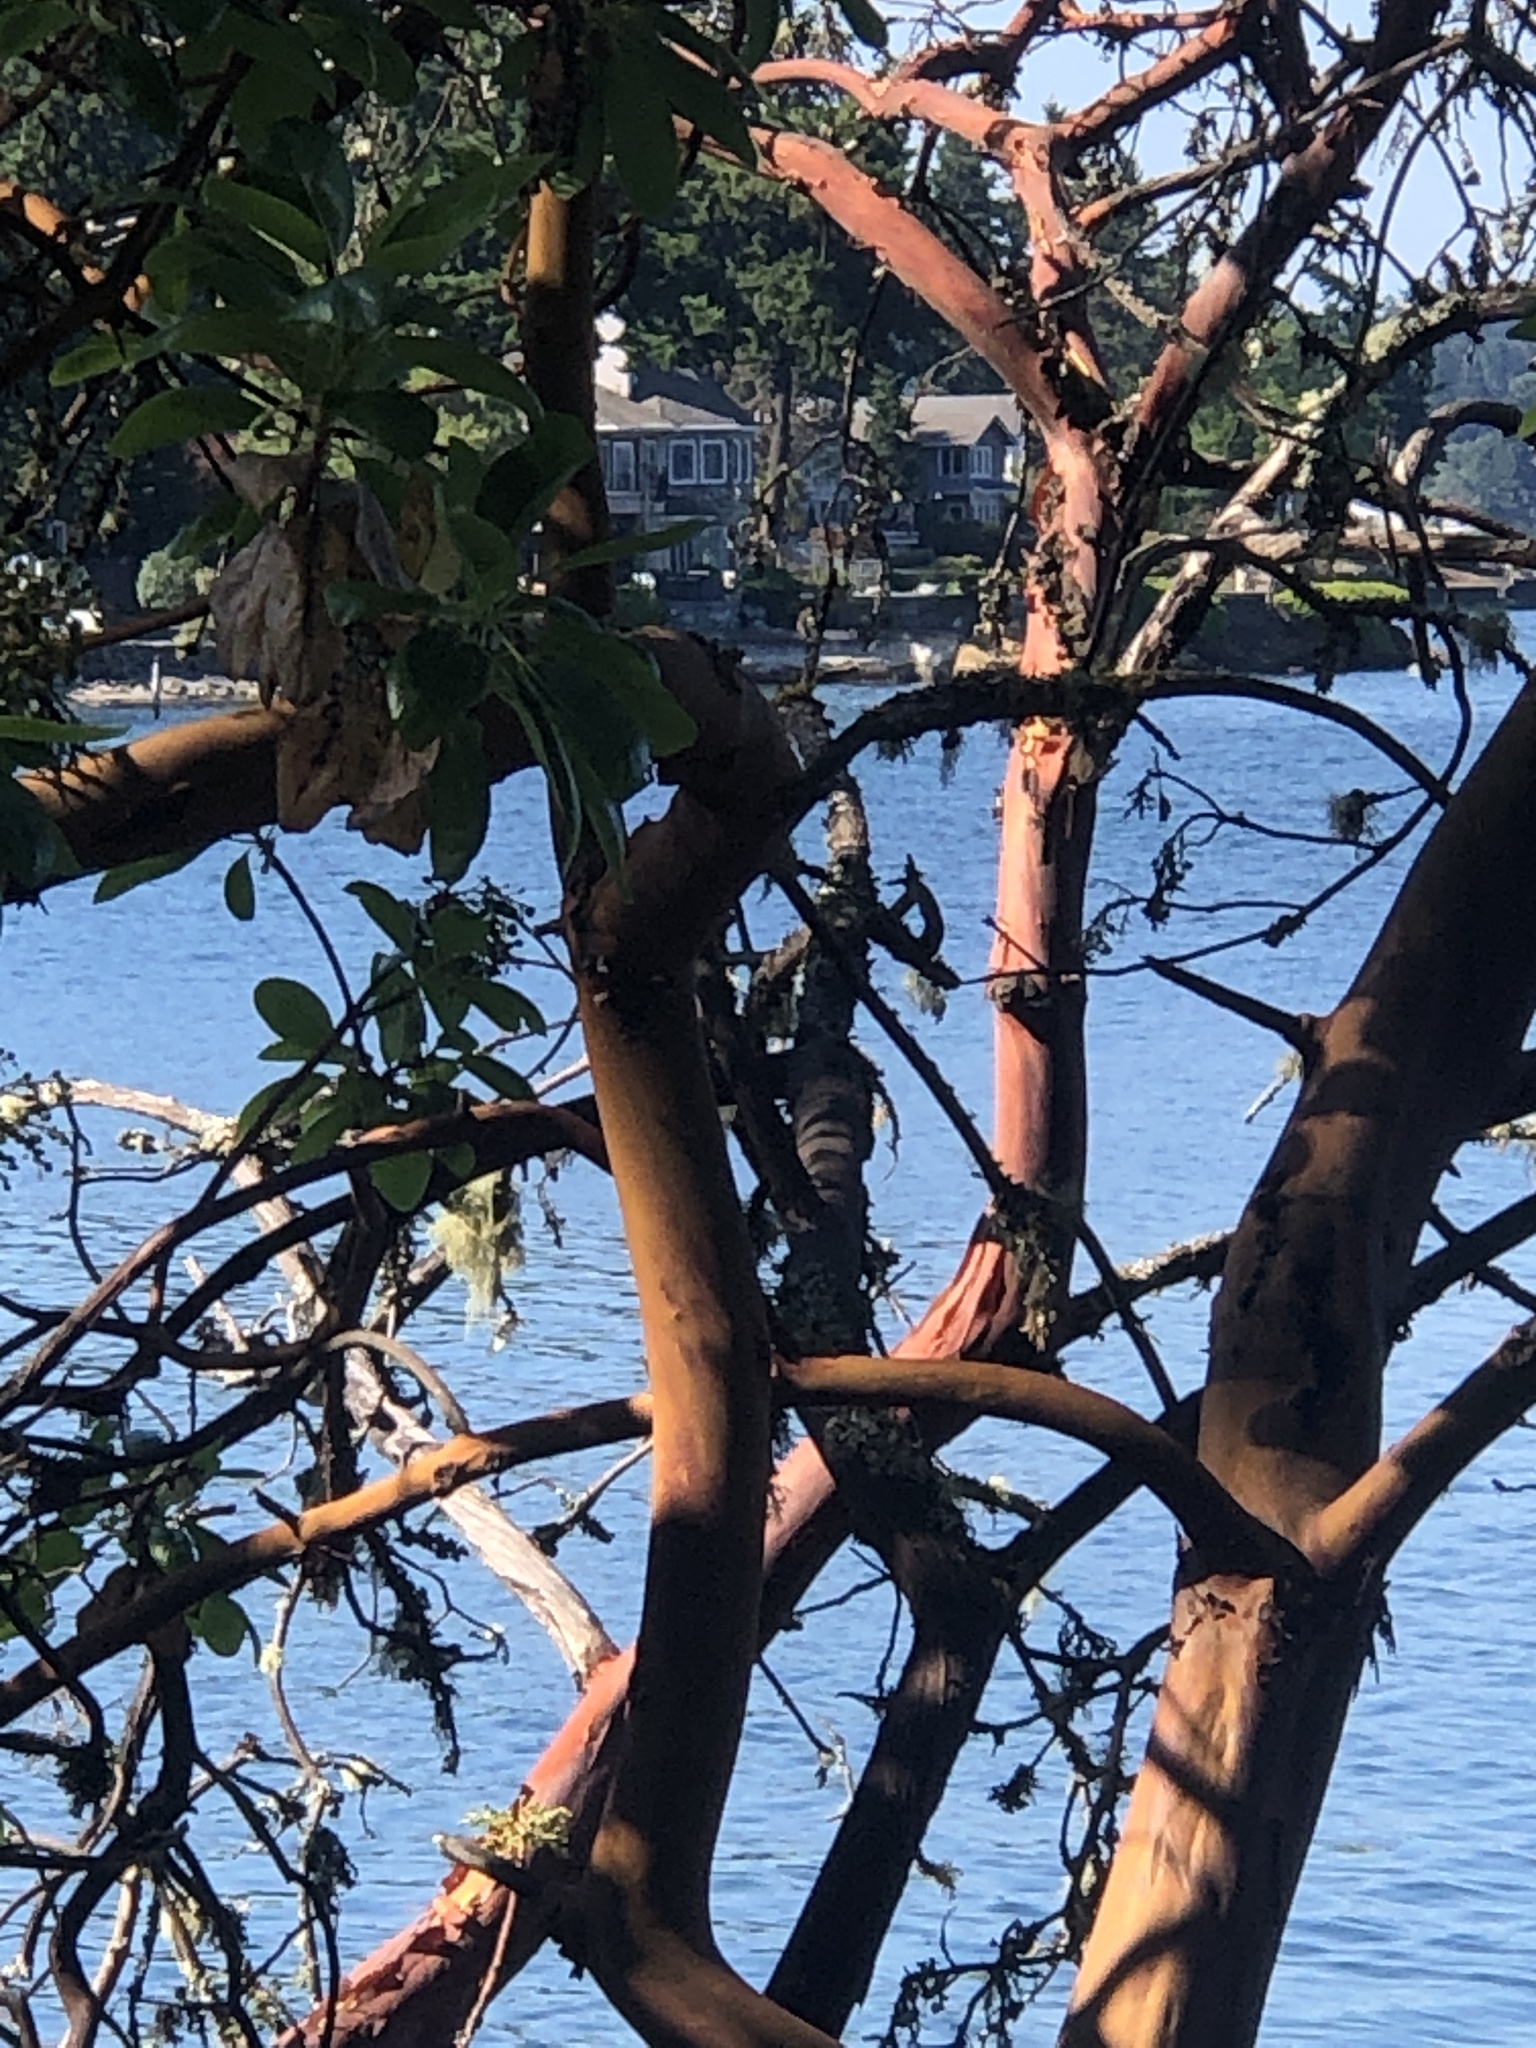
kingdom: Plantae
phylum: Tracheophyta
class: Magnoliopsida
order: Ericales
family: Ericaceae
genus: Arbutus
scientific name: Arbutus menziesii
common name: Pacific madrone
